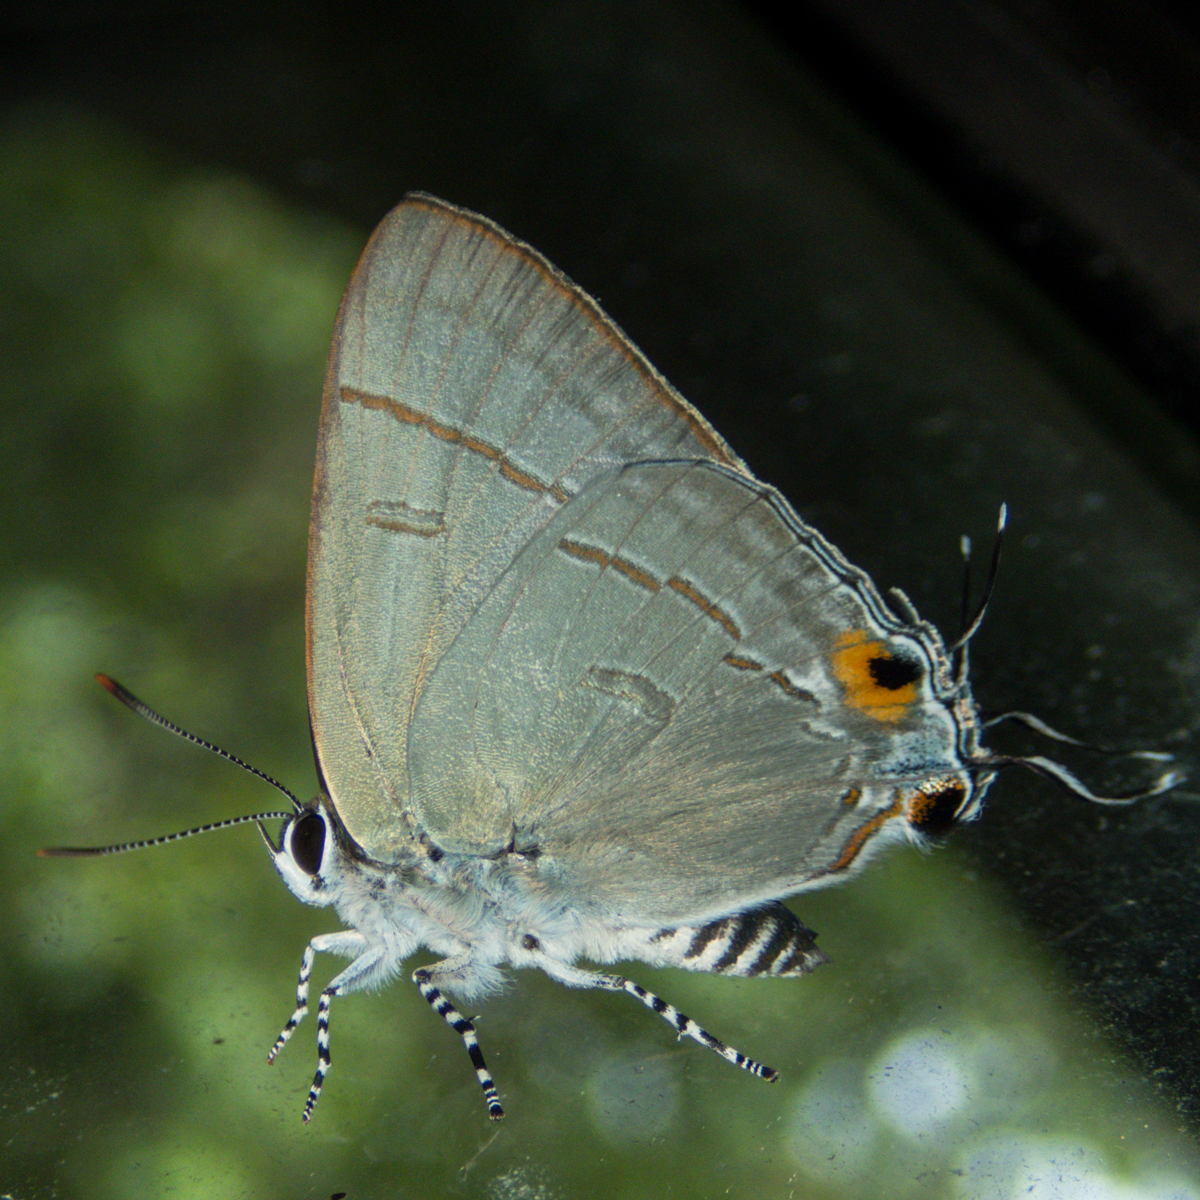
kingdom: Animalia
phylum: Arthropoda
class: Insecta
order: Lepidoptera
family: Lycaenidae
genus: Hypolycaena
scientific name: Hypolycaena erylus
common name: Common tit
